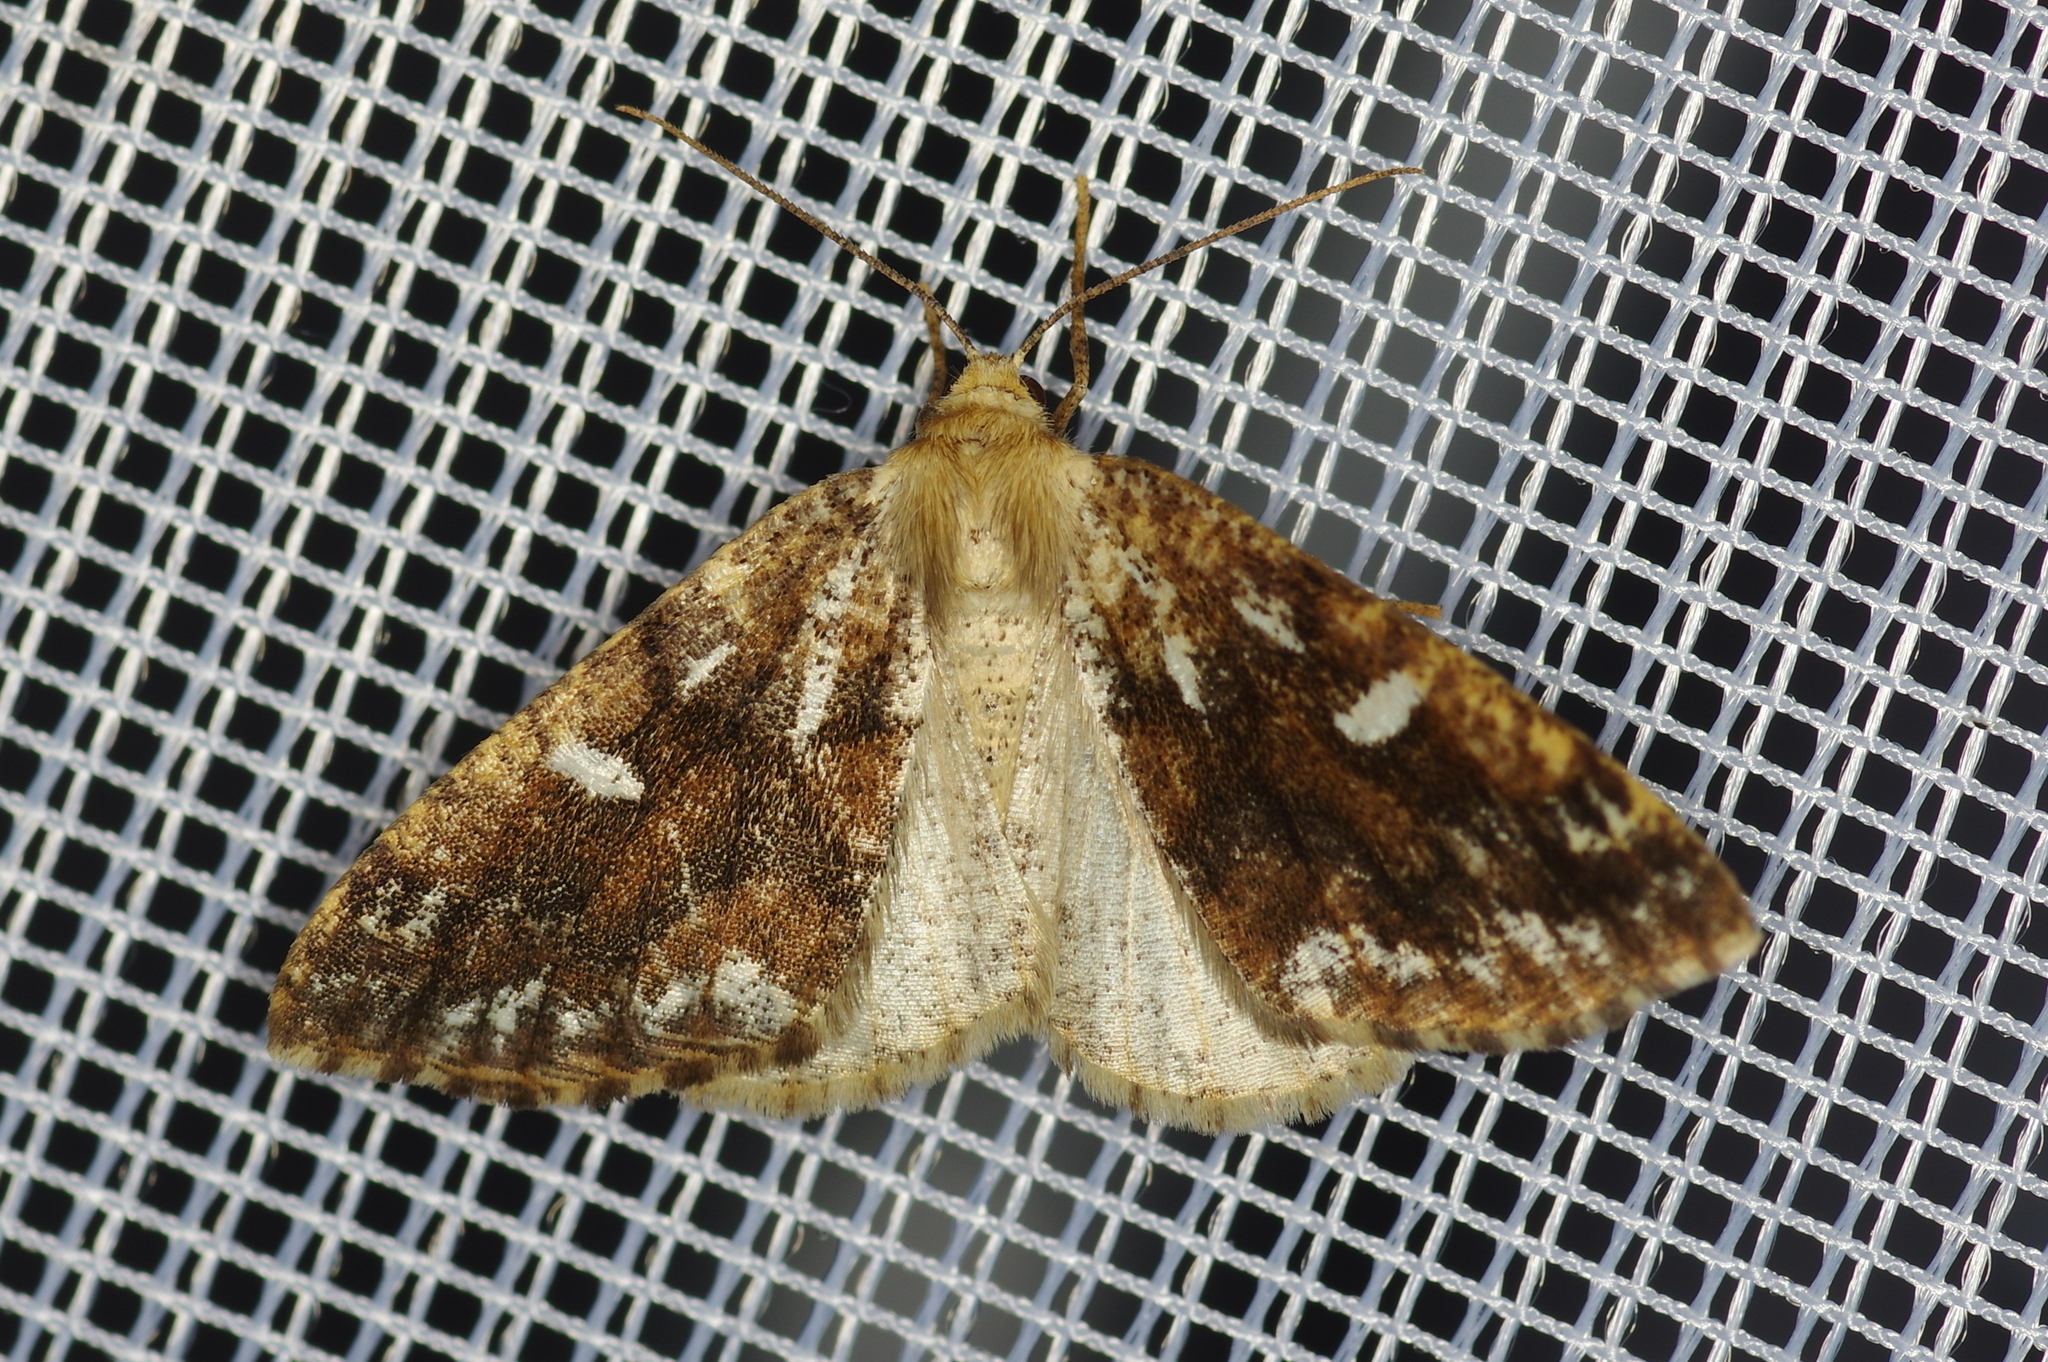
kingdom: Animalia
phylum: Arthropoda
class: Insecta
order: Lepidoptera
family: Geometridae
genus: Caripeta
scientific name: Caripeta divisata
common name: Gray spruce looper
